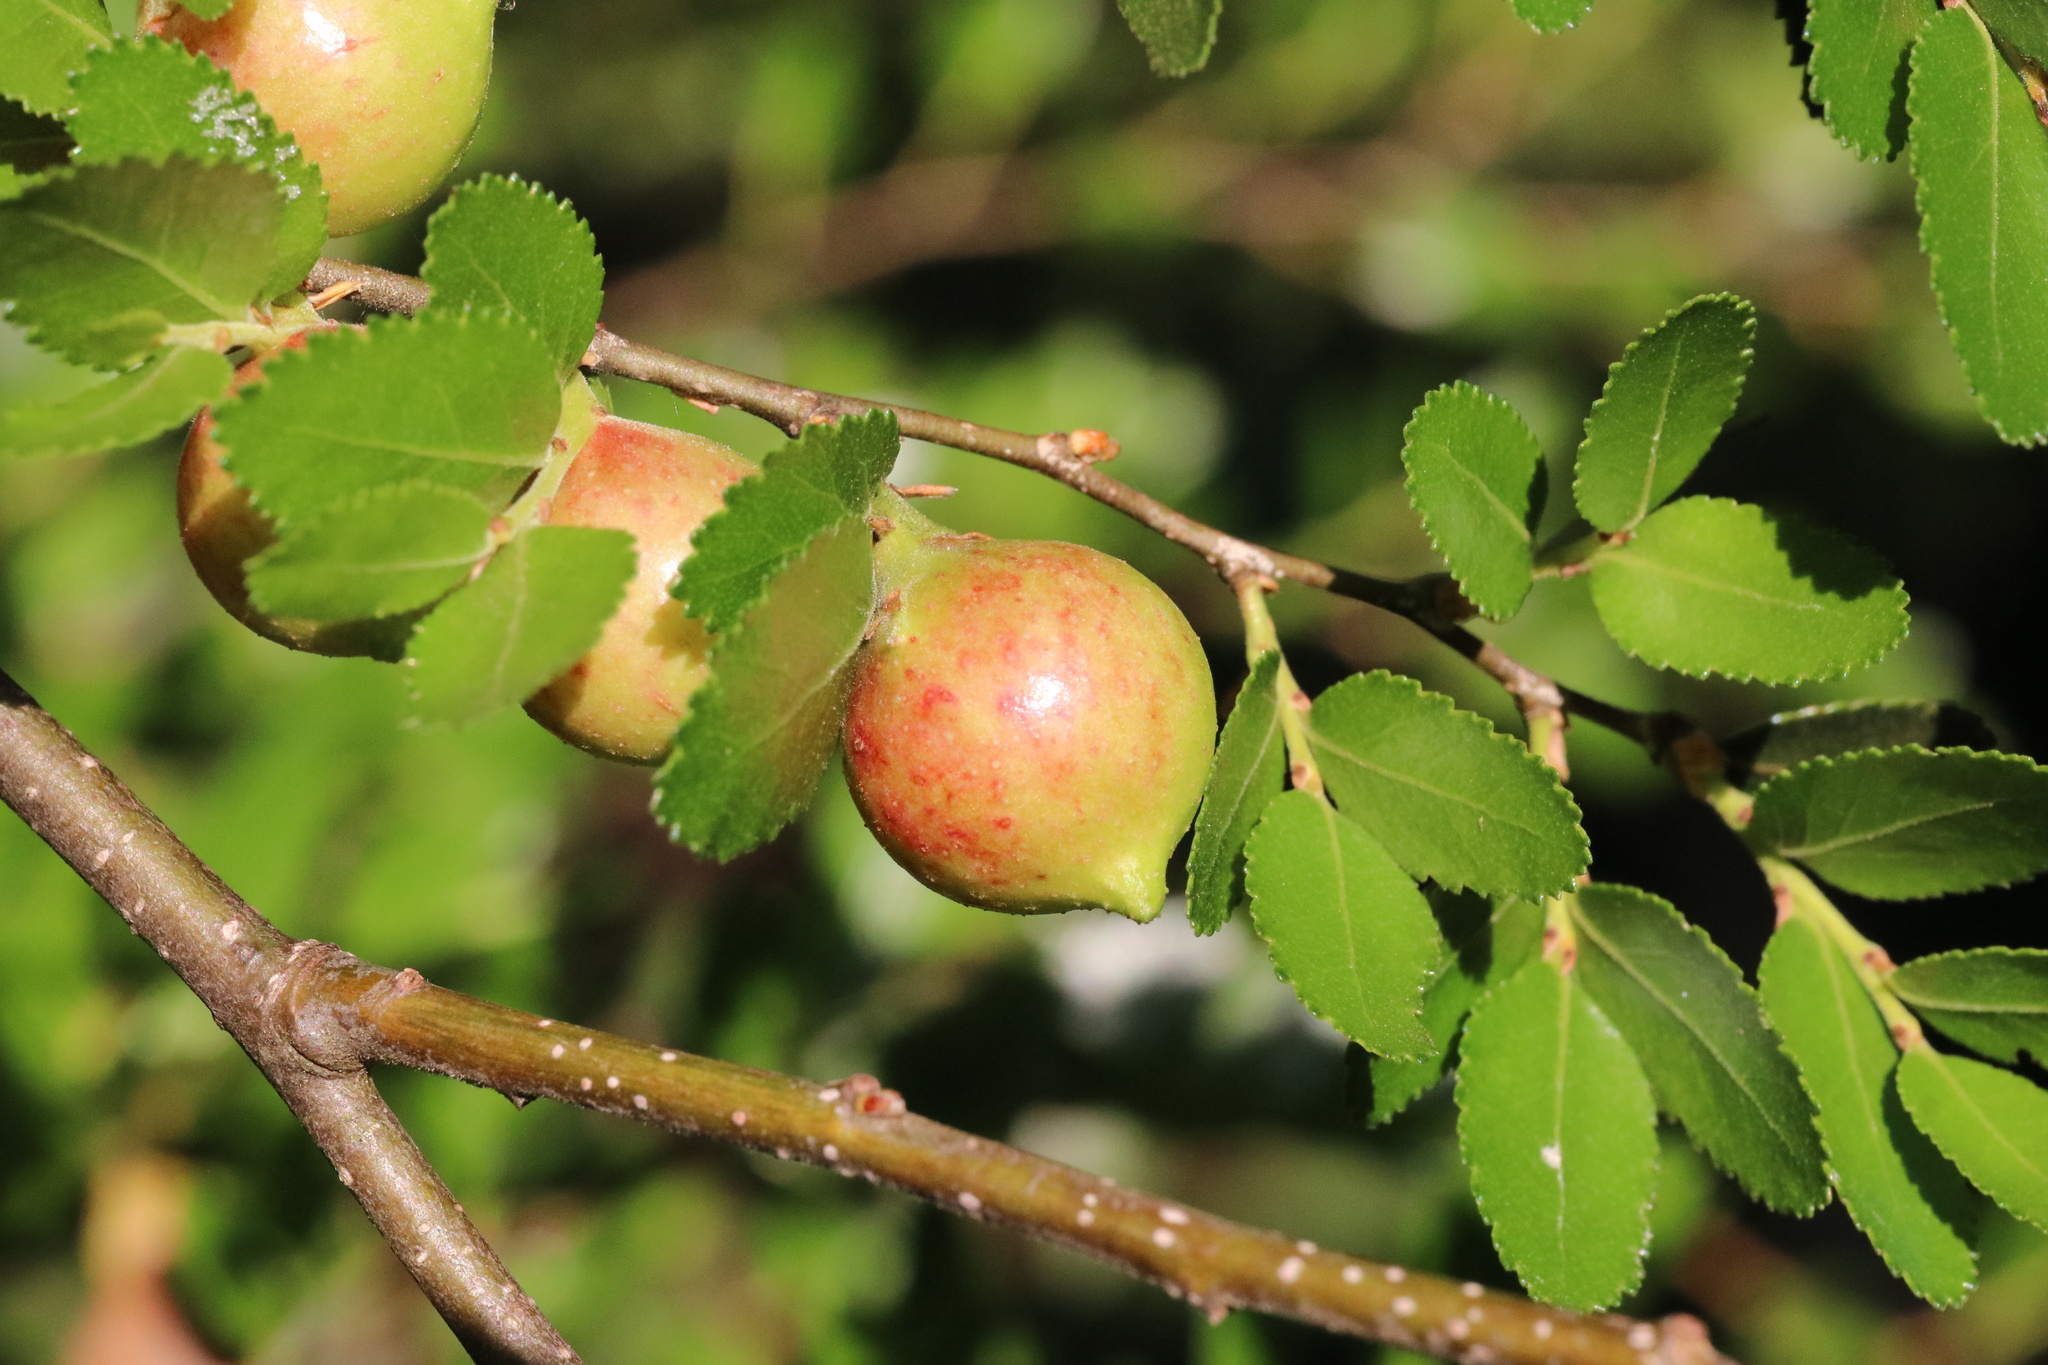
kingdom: Animalia
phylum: Arthropoda
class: Insecta
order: Hymenoptera
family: Pteromalidae
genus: Aditrochus
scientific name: Aditrochus coihuensis
